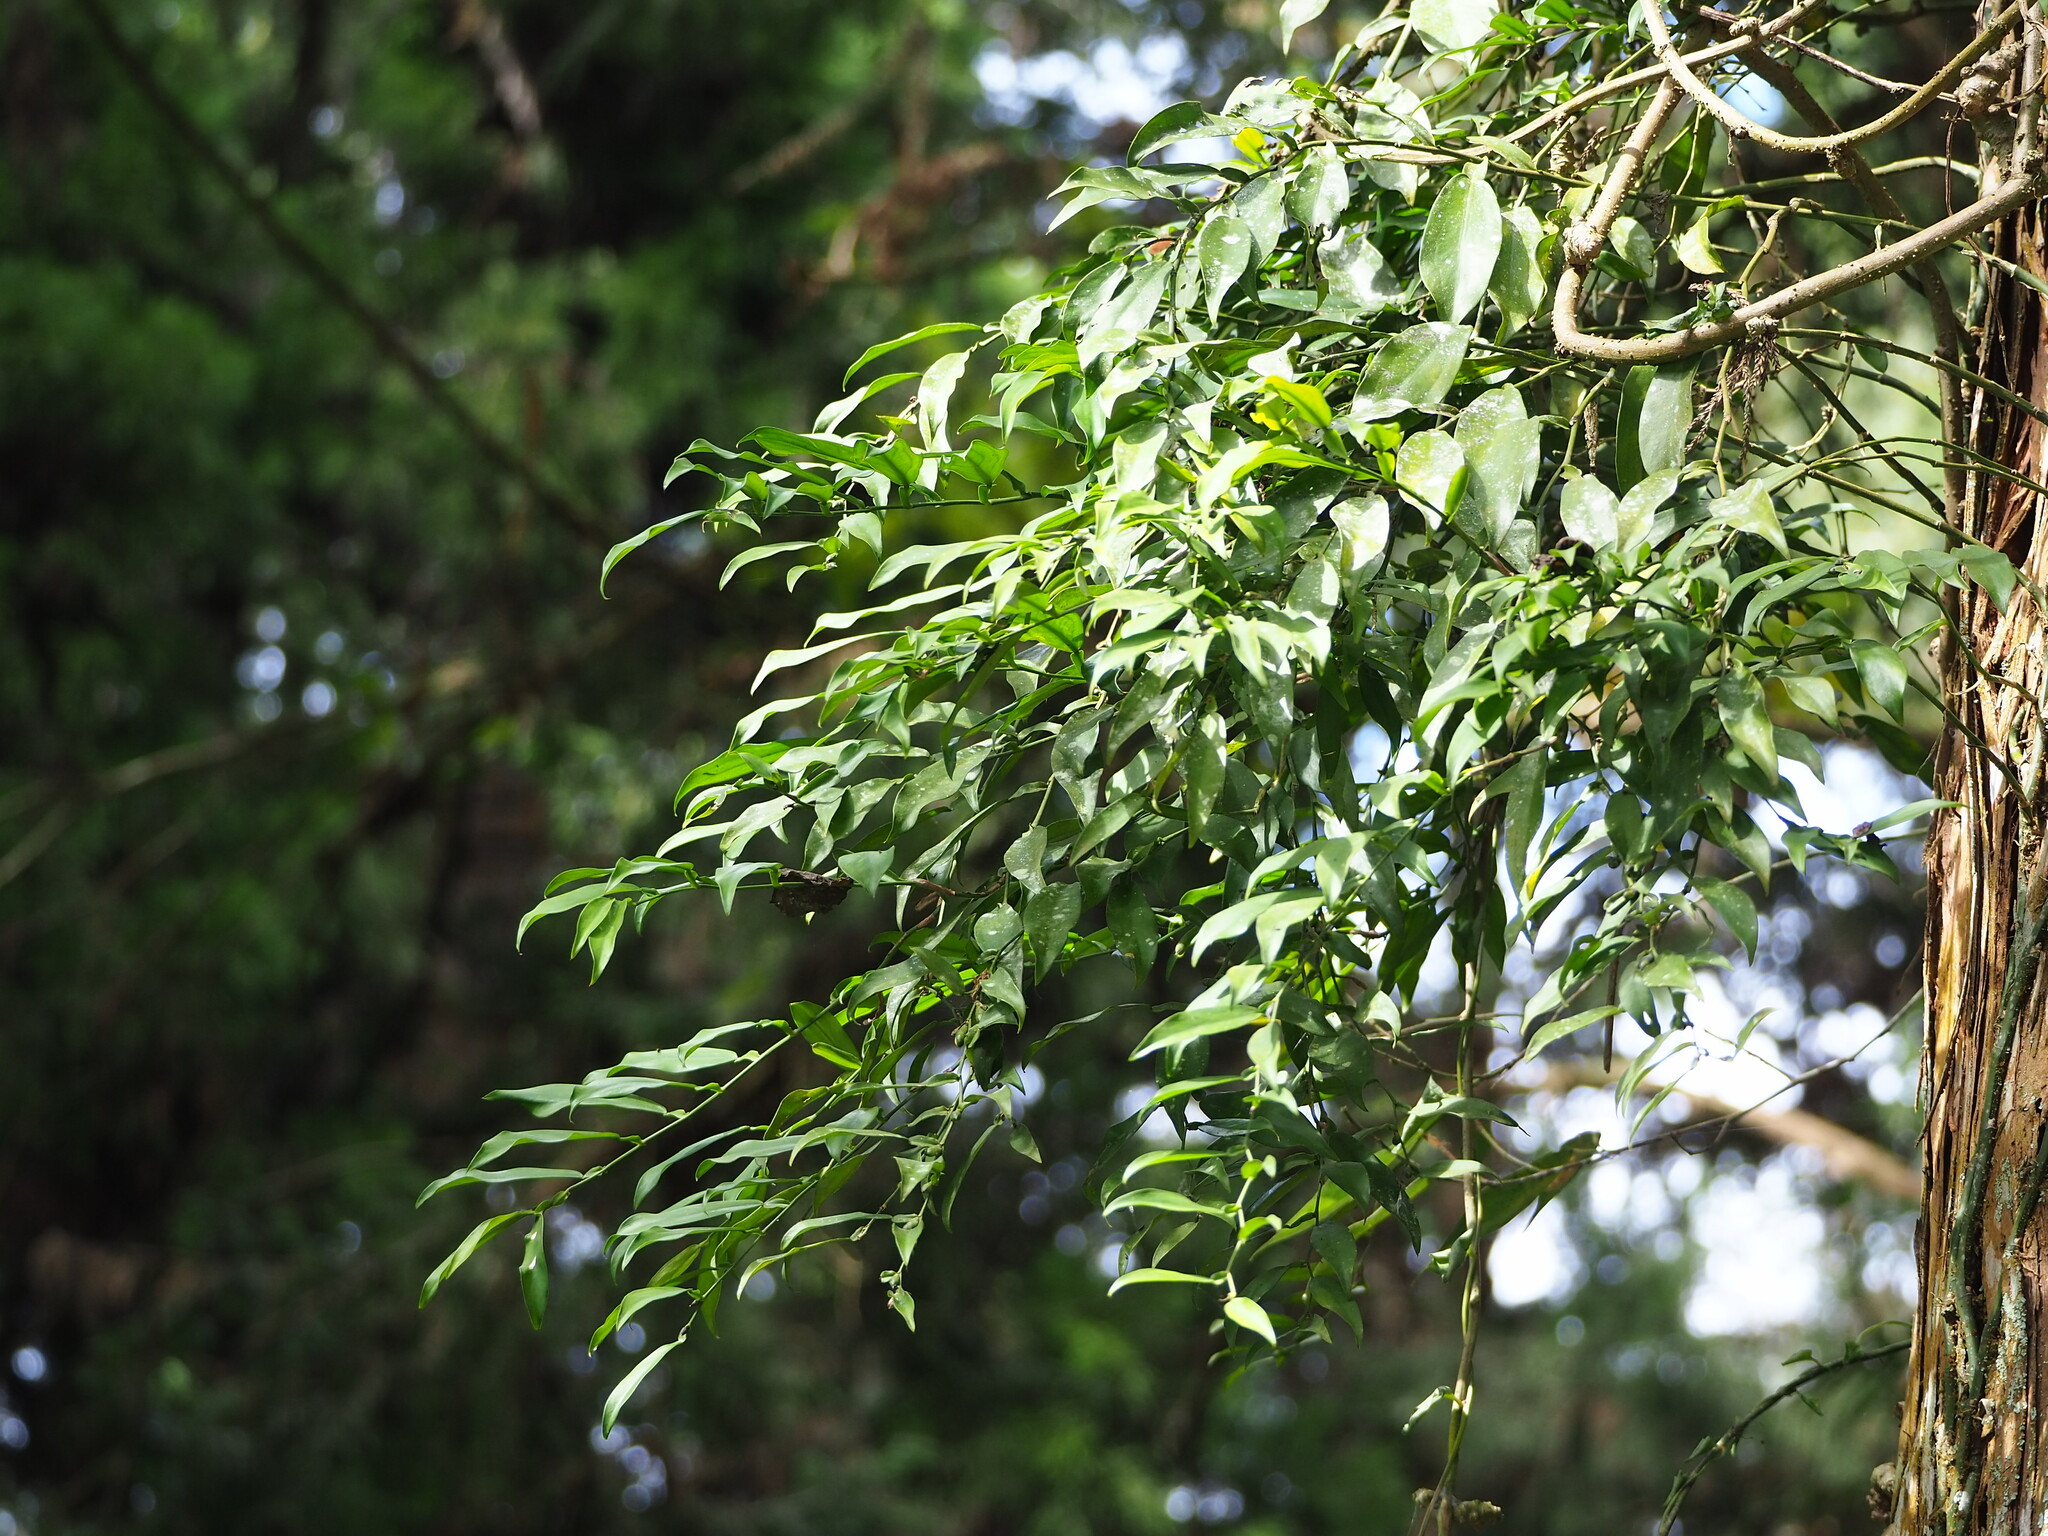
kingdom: Plantae
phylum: Tracheophyta
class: Liliopsida
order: Alismatales
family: Araceae
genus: Pothos
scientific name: Pothos chinensis
